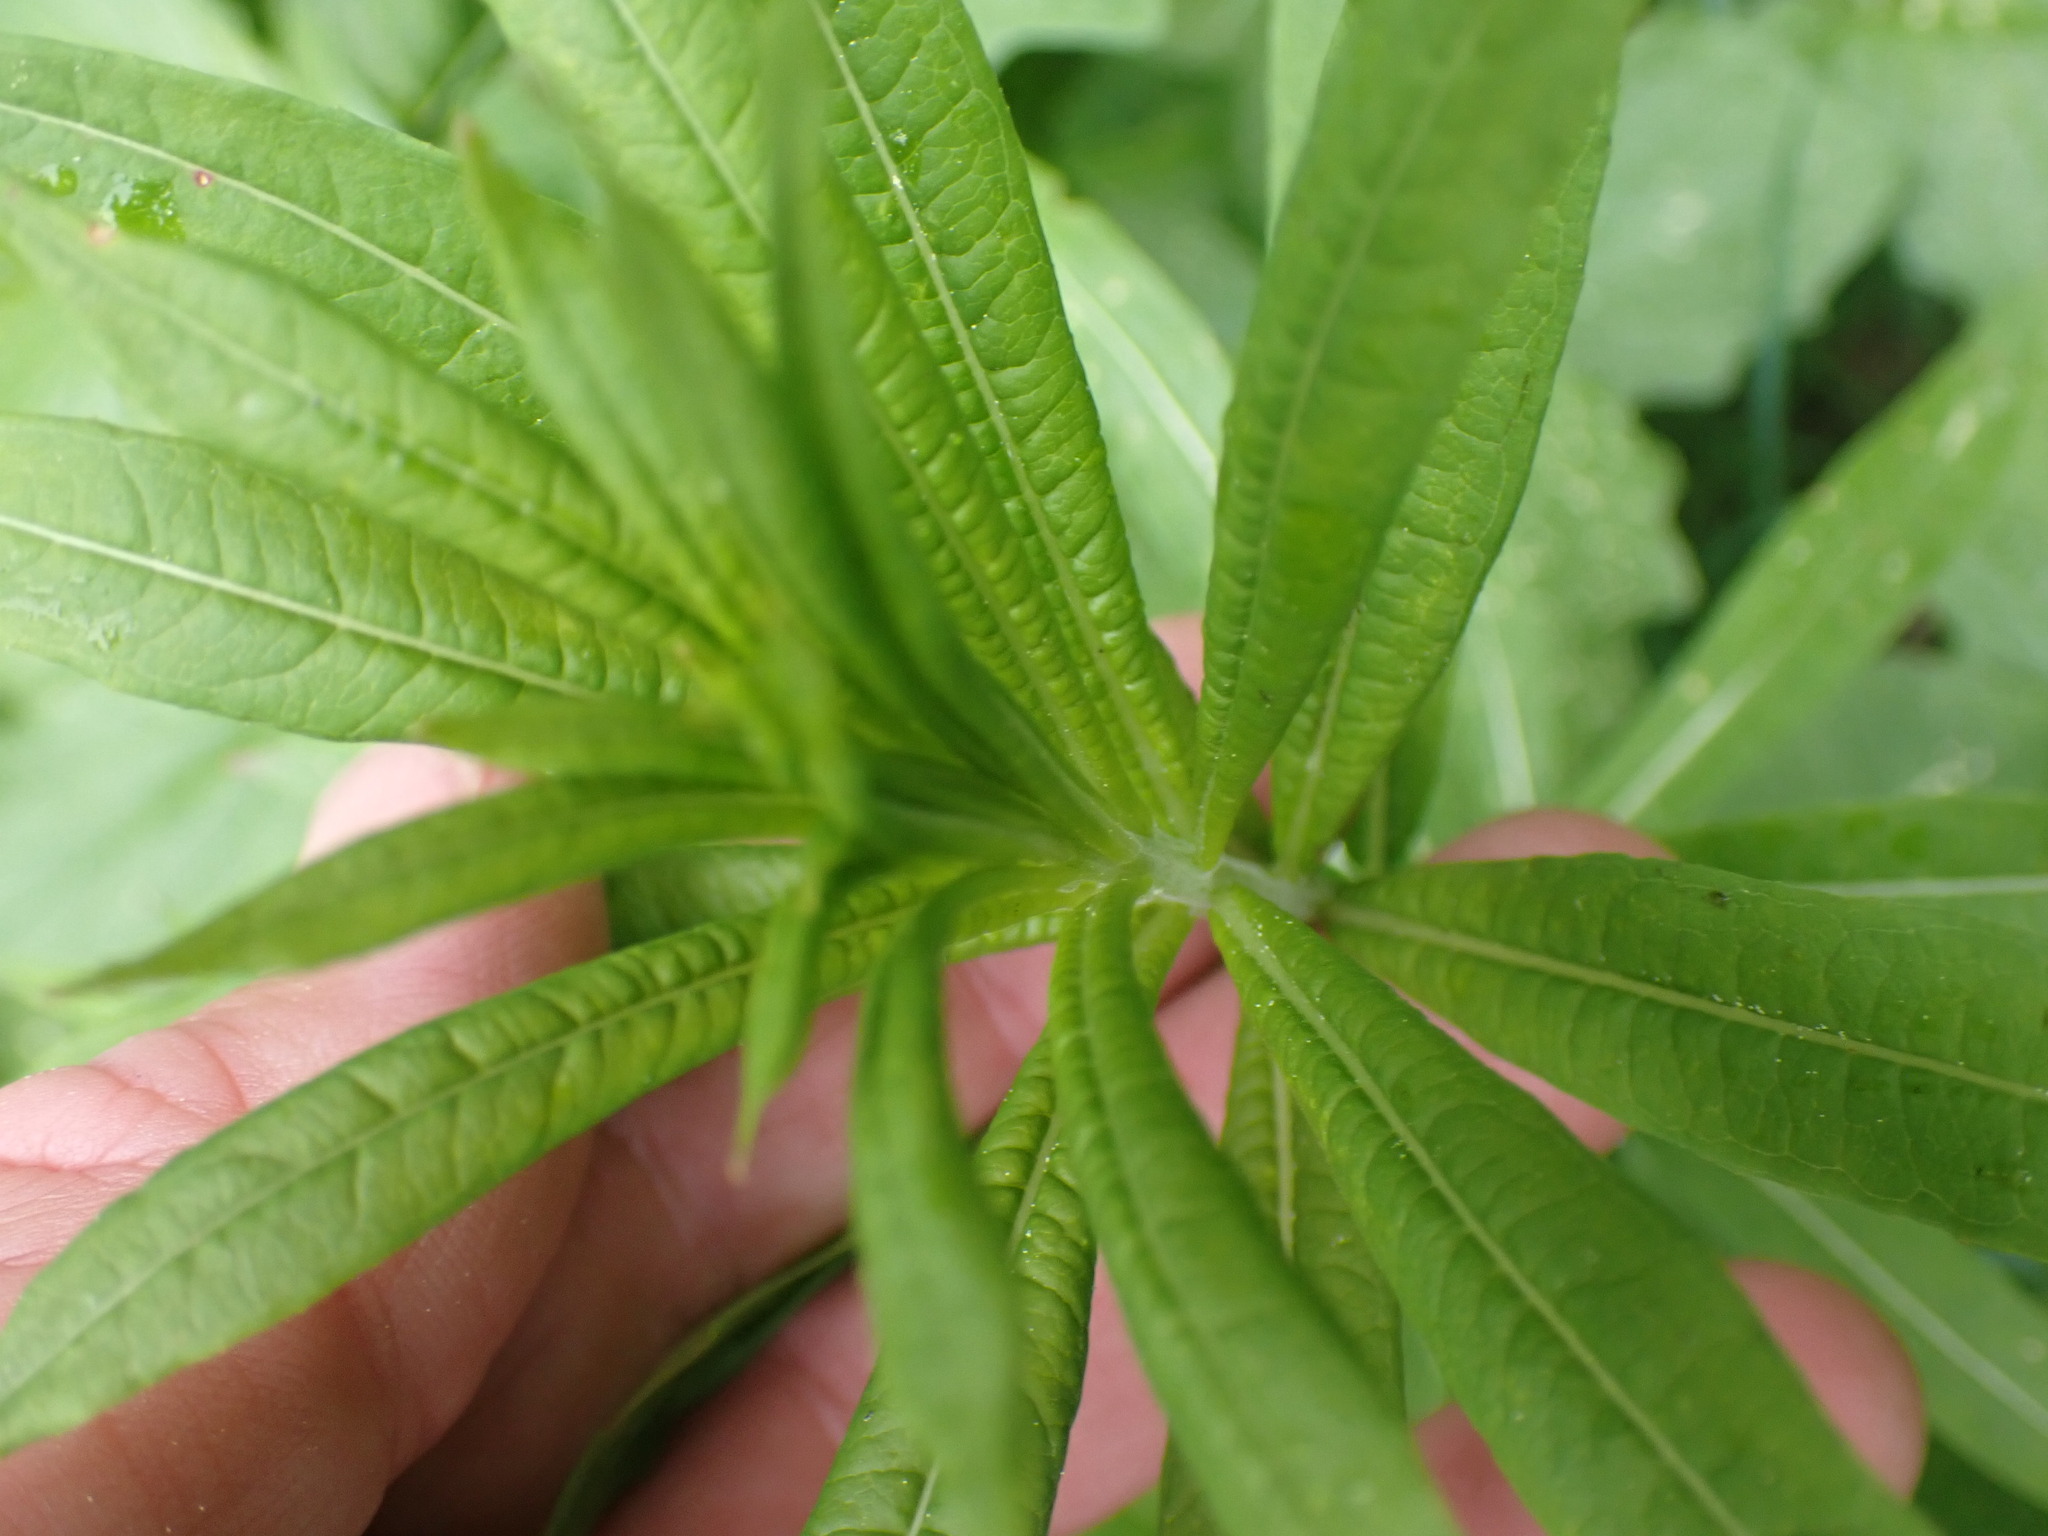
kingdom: Plantae
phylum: Tracheophyta
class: Magnoliopsida
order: Myrtales
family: Onagraceae
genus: Chamaenerion
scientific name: Chamaenerion angustifolium
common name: Fireweed
